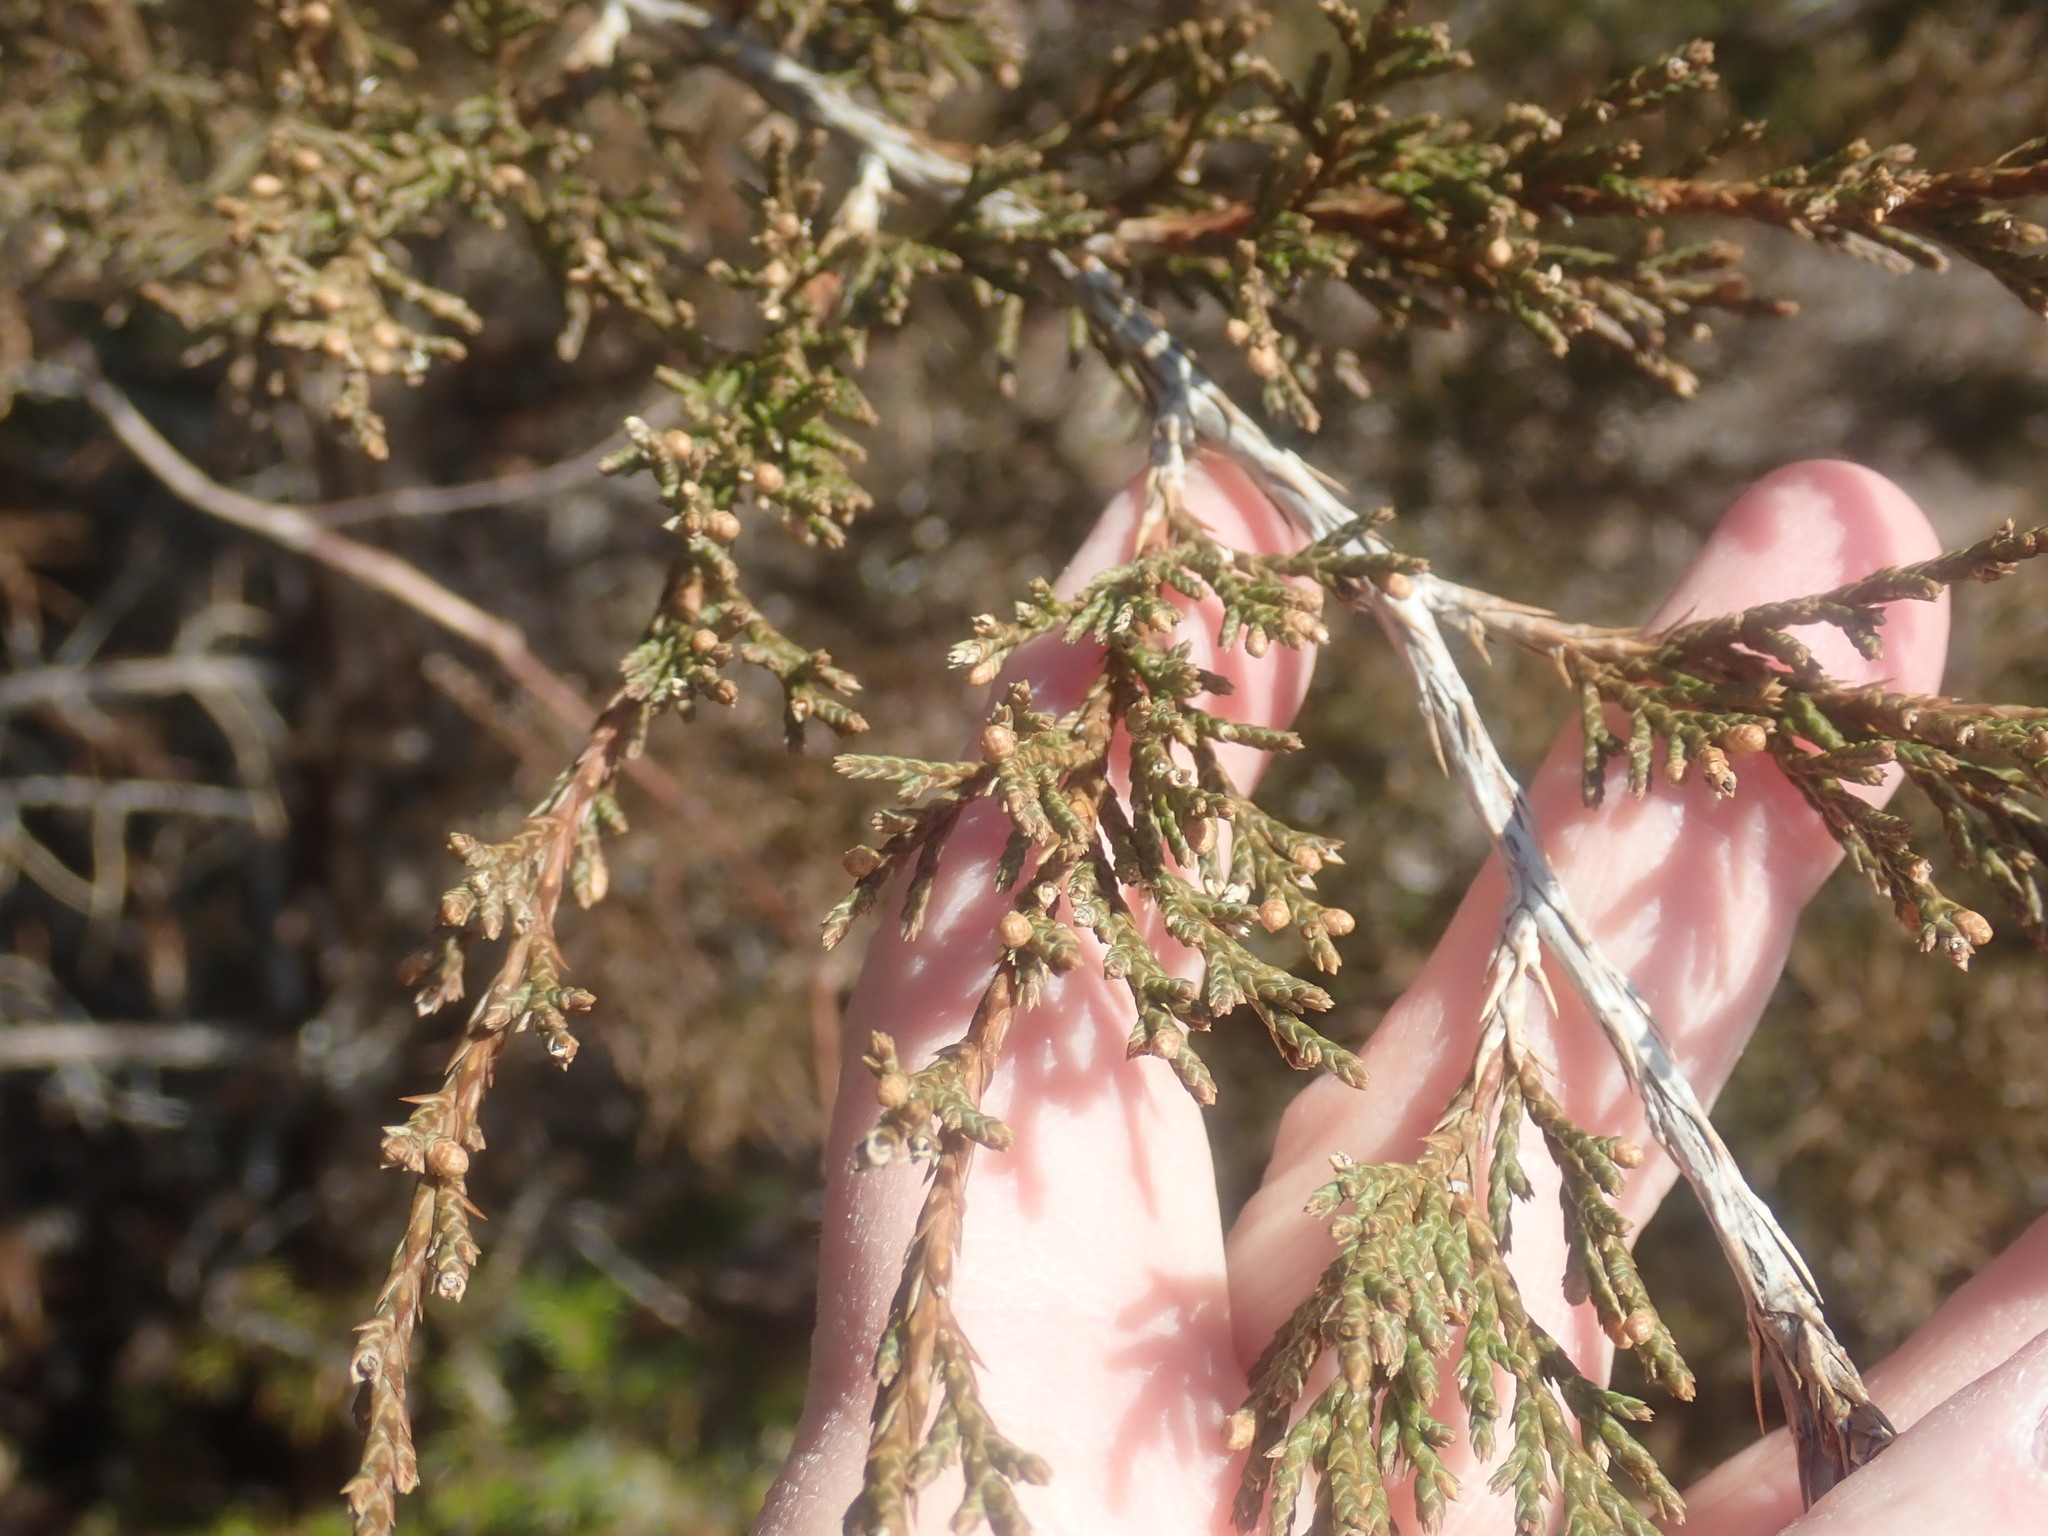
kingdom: Plantae
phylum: Tracheophyta
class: Pinopsida
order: Pinales
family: Cupressaceae
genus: Juniperus
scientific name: Juniperus virginiana
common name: Red juniper
